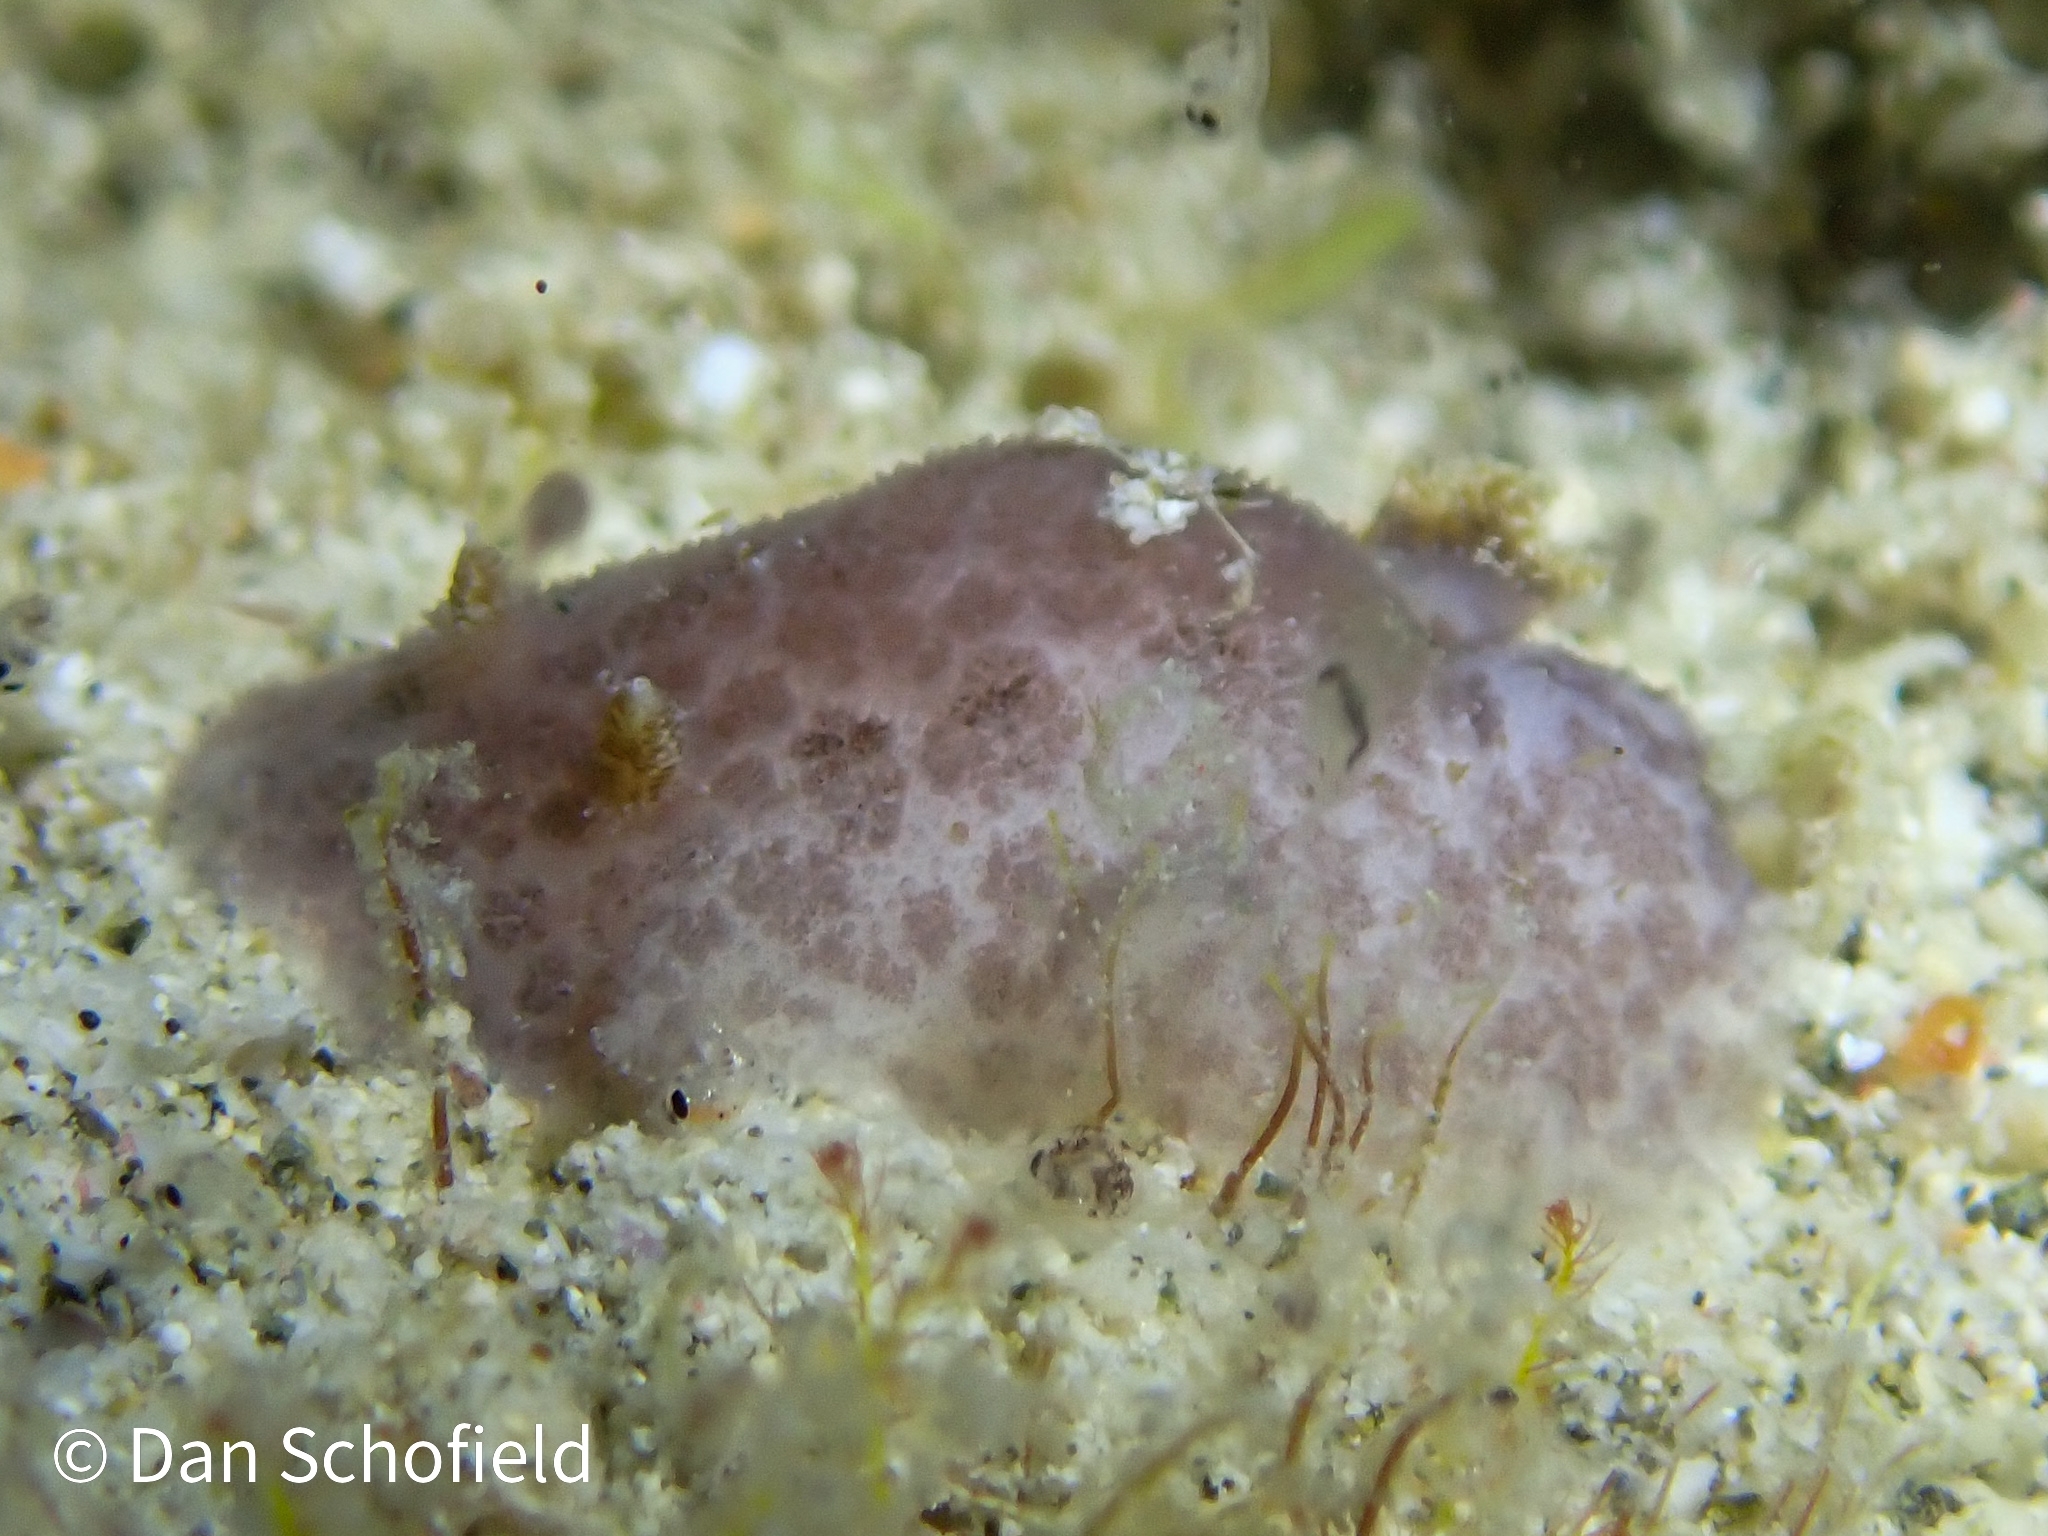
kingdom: Animalia
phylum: Mollusca
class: Gastropoda
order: Nudibranchia
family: Discodorididae
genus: Tayuva
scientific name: Tayuva lilacina
